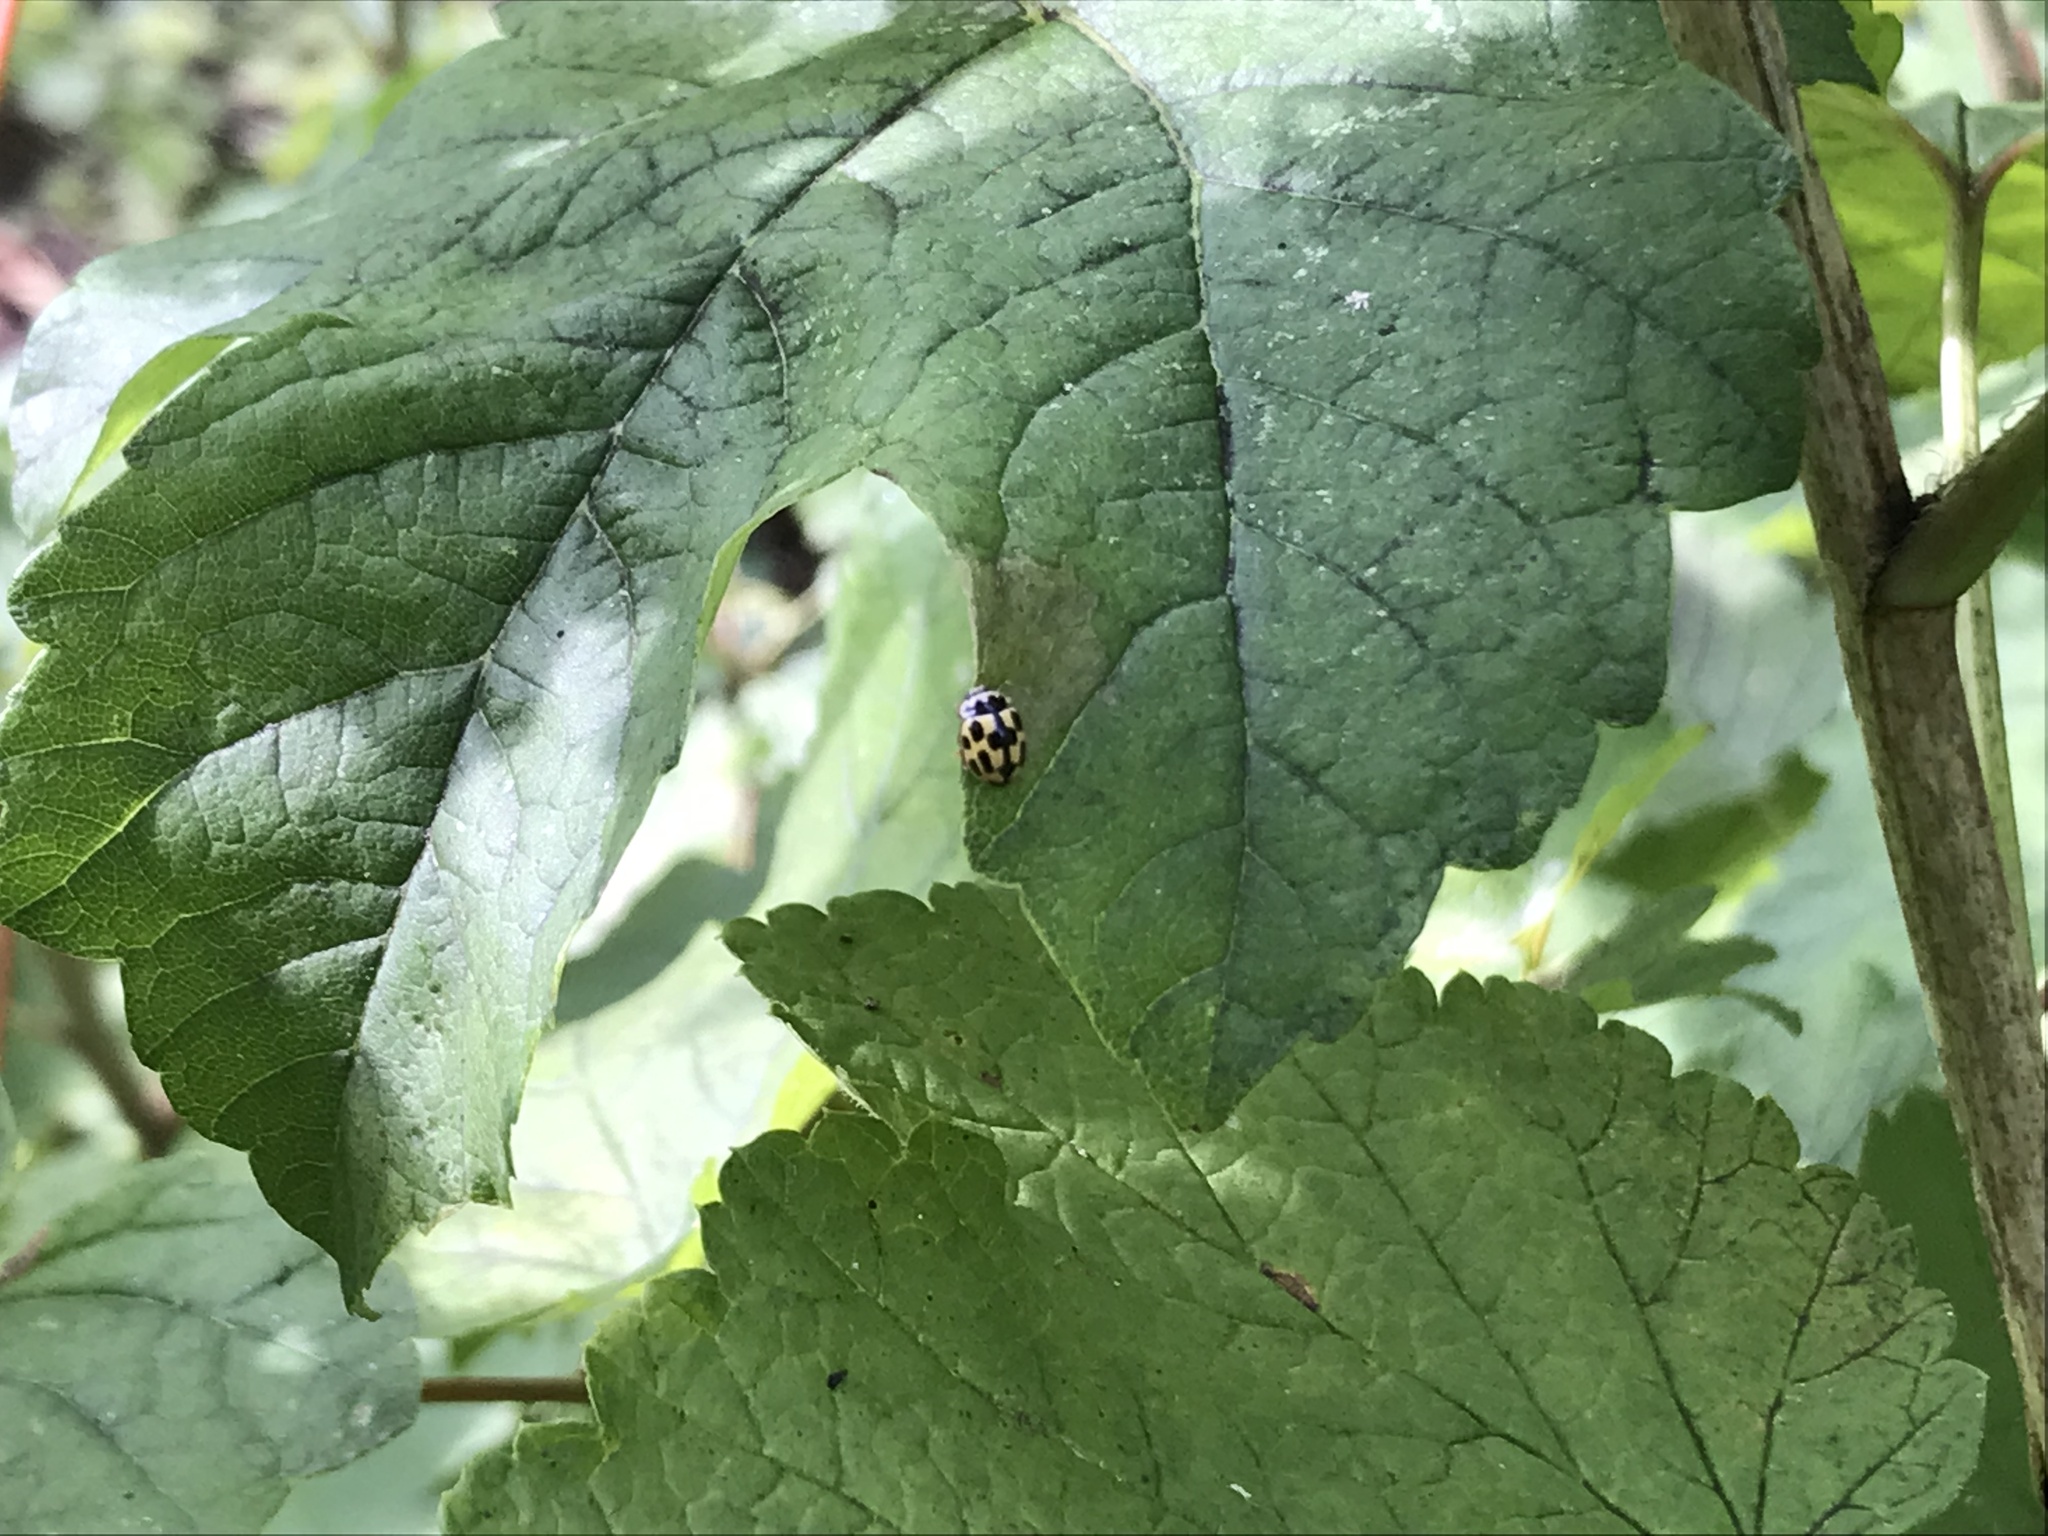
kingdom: Animalia
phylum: Arthropoda
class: Insecta
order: Coleoptera
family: Coccinellidae
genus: Propylaea
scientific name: Propylaea quatuordecimpunctata
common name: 14-spotted ladybird beetle
